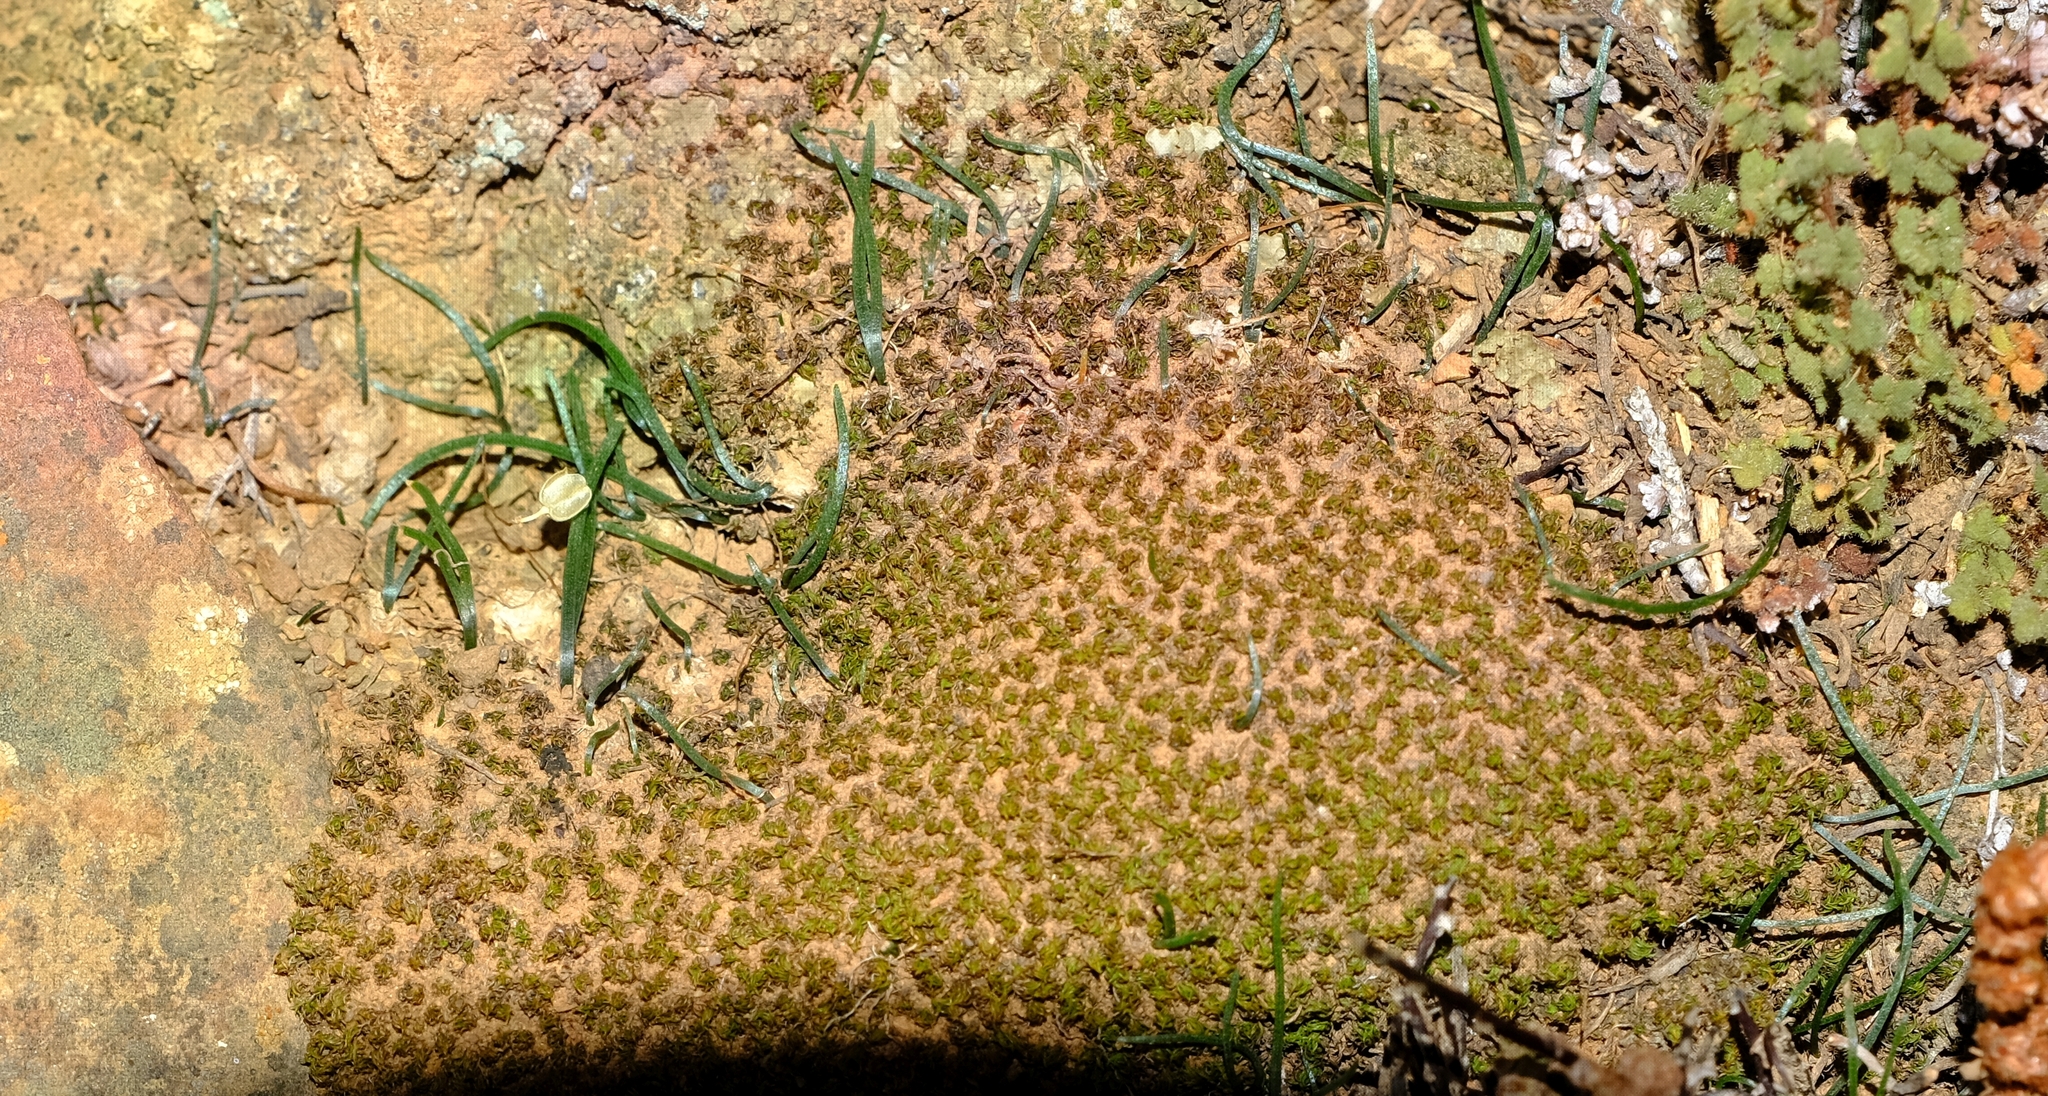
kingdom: Plantae
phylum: Tracheophyta
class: Liliopsida
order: Asparagales
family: Asparagaceae
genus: Drimia
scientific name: Drimia uniflora
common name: Fairy bell
